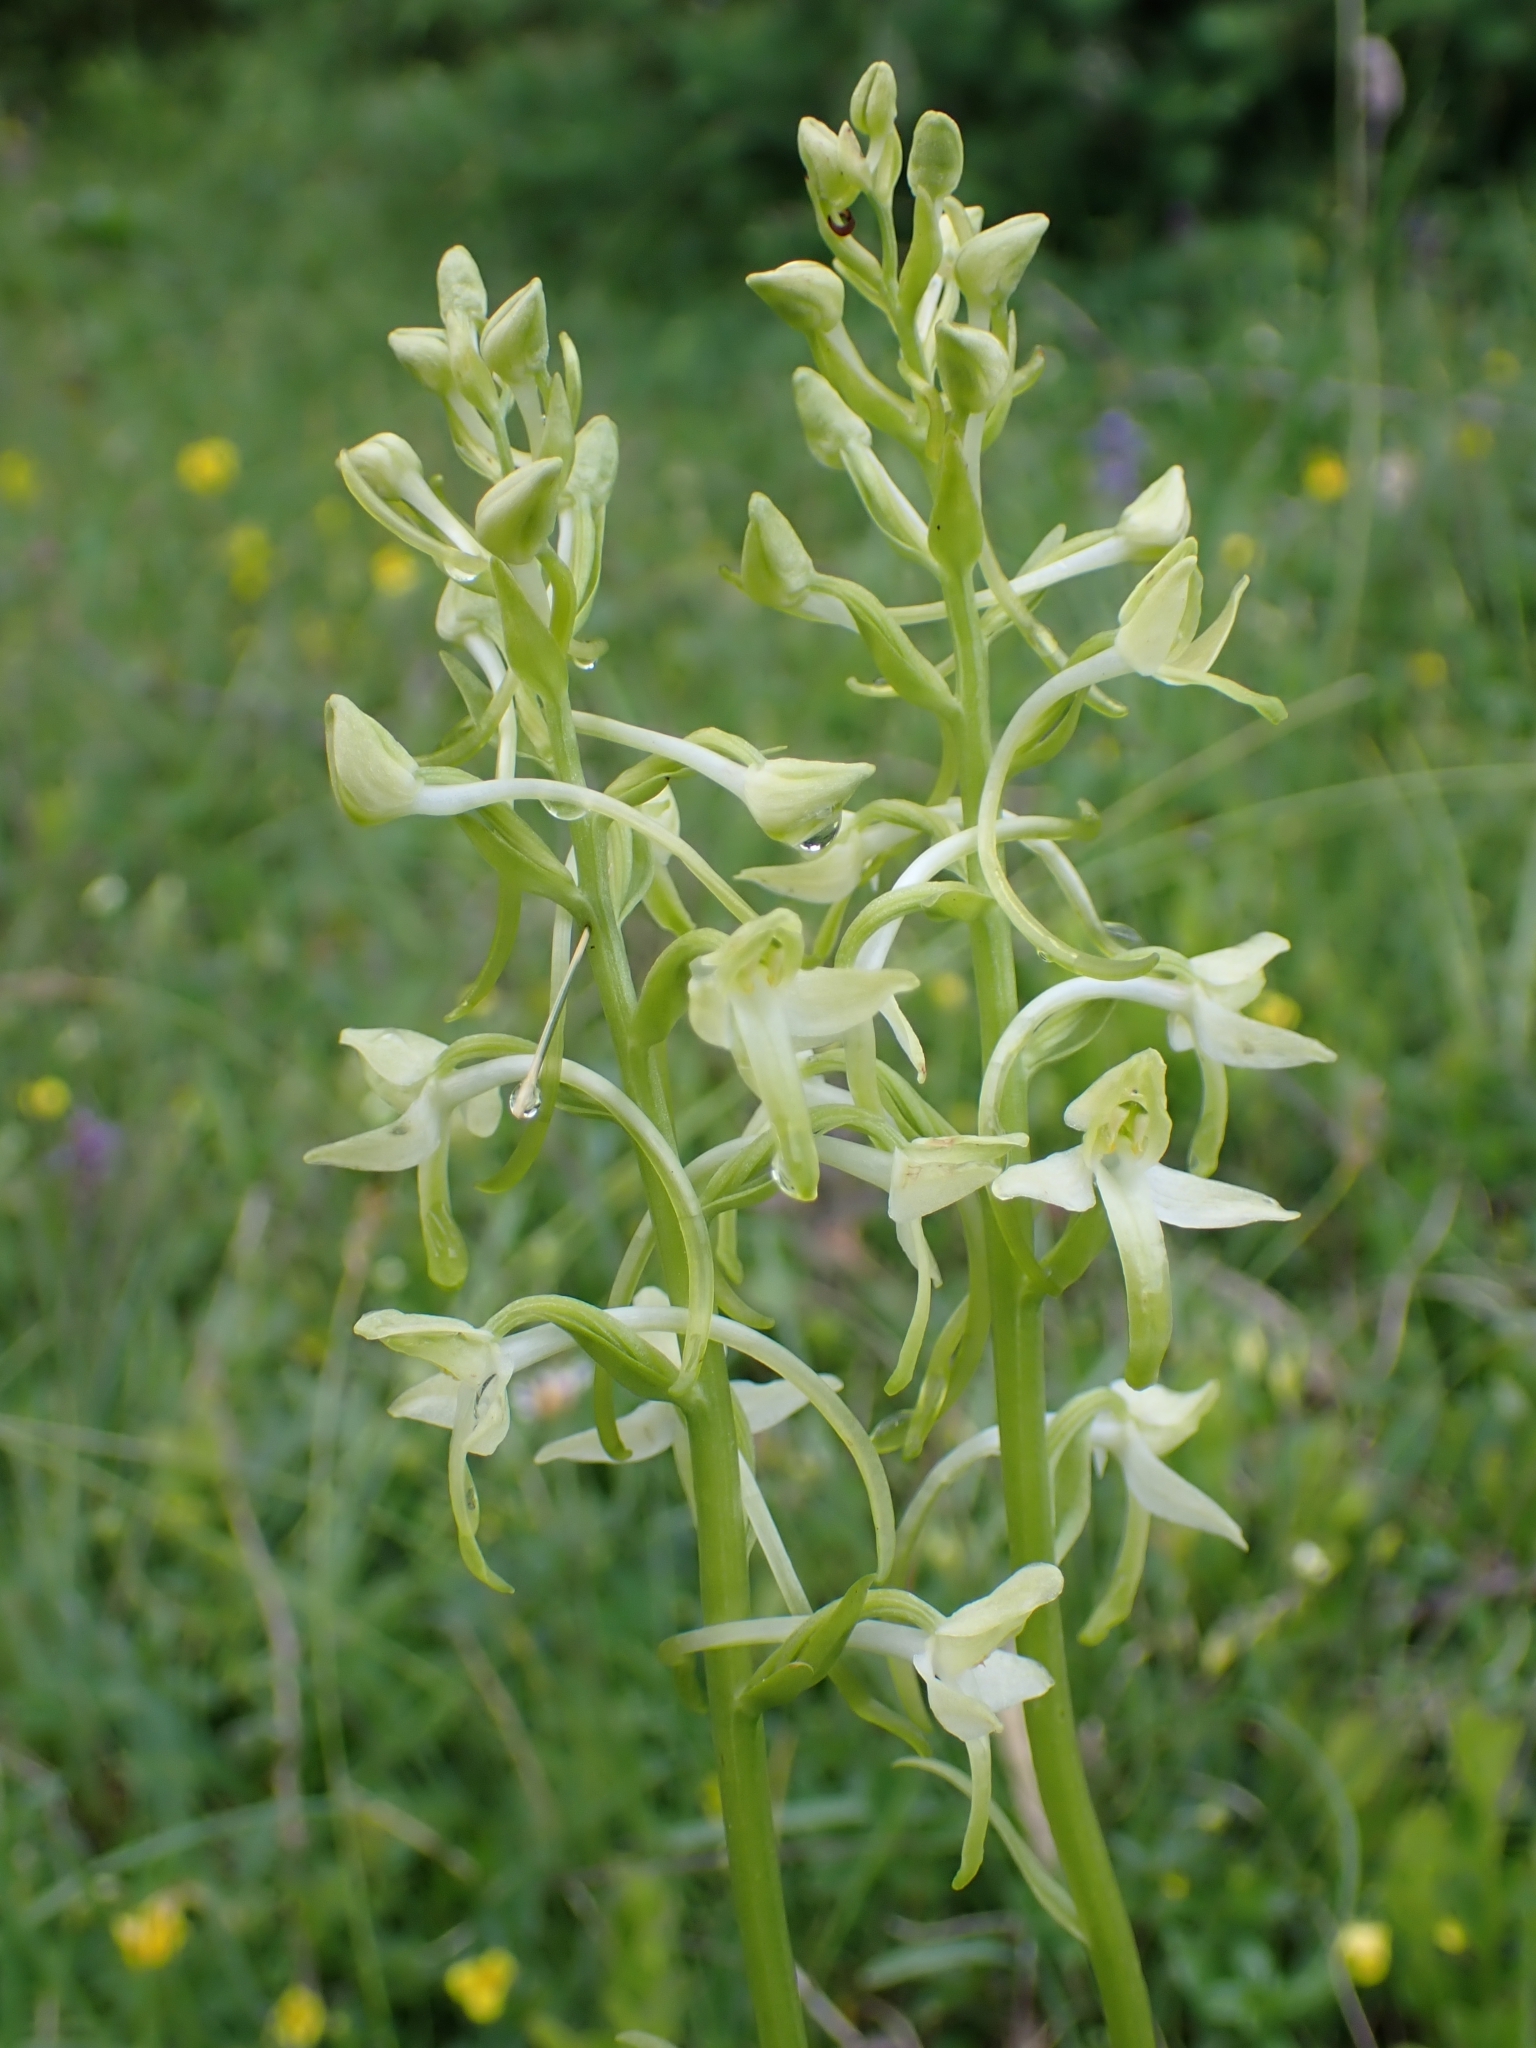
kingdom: Plantae
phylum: Tracheophyta
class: Liliopsida
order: Asparagales
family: Orchidaceae
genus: Platanthera
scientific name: Platanthera bifolia
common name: Lesser butterfly-orchid
